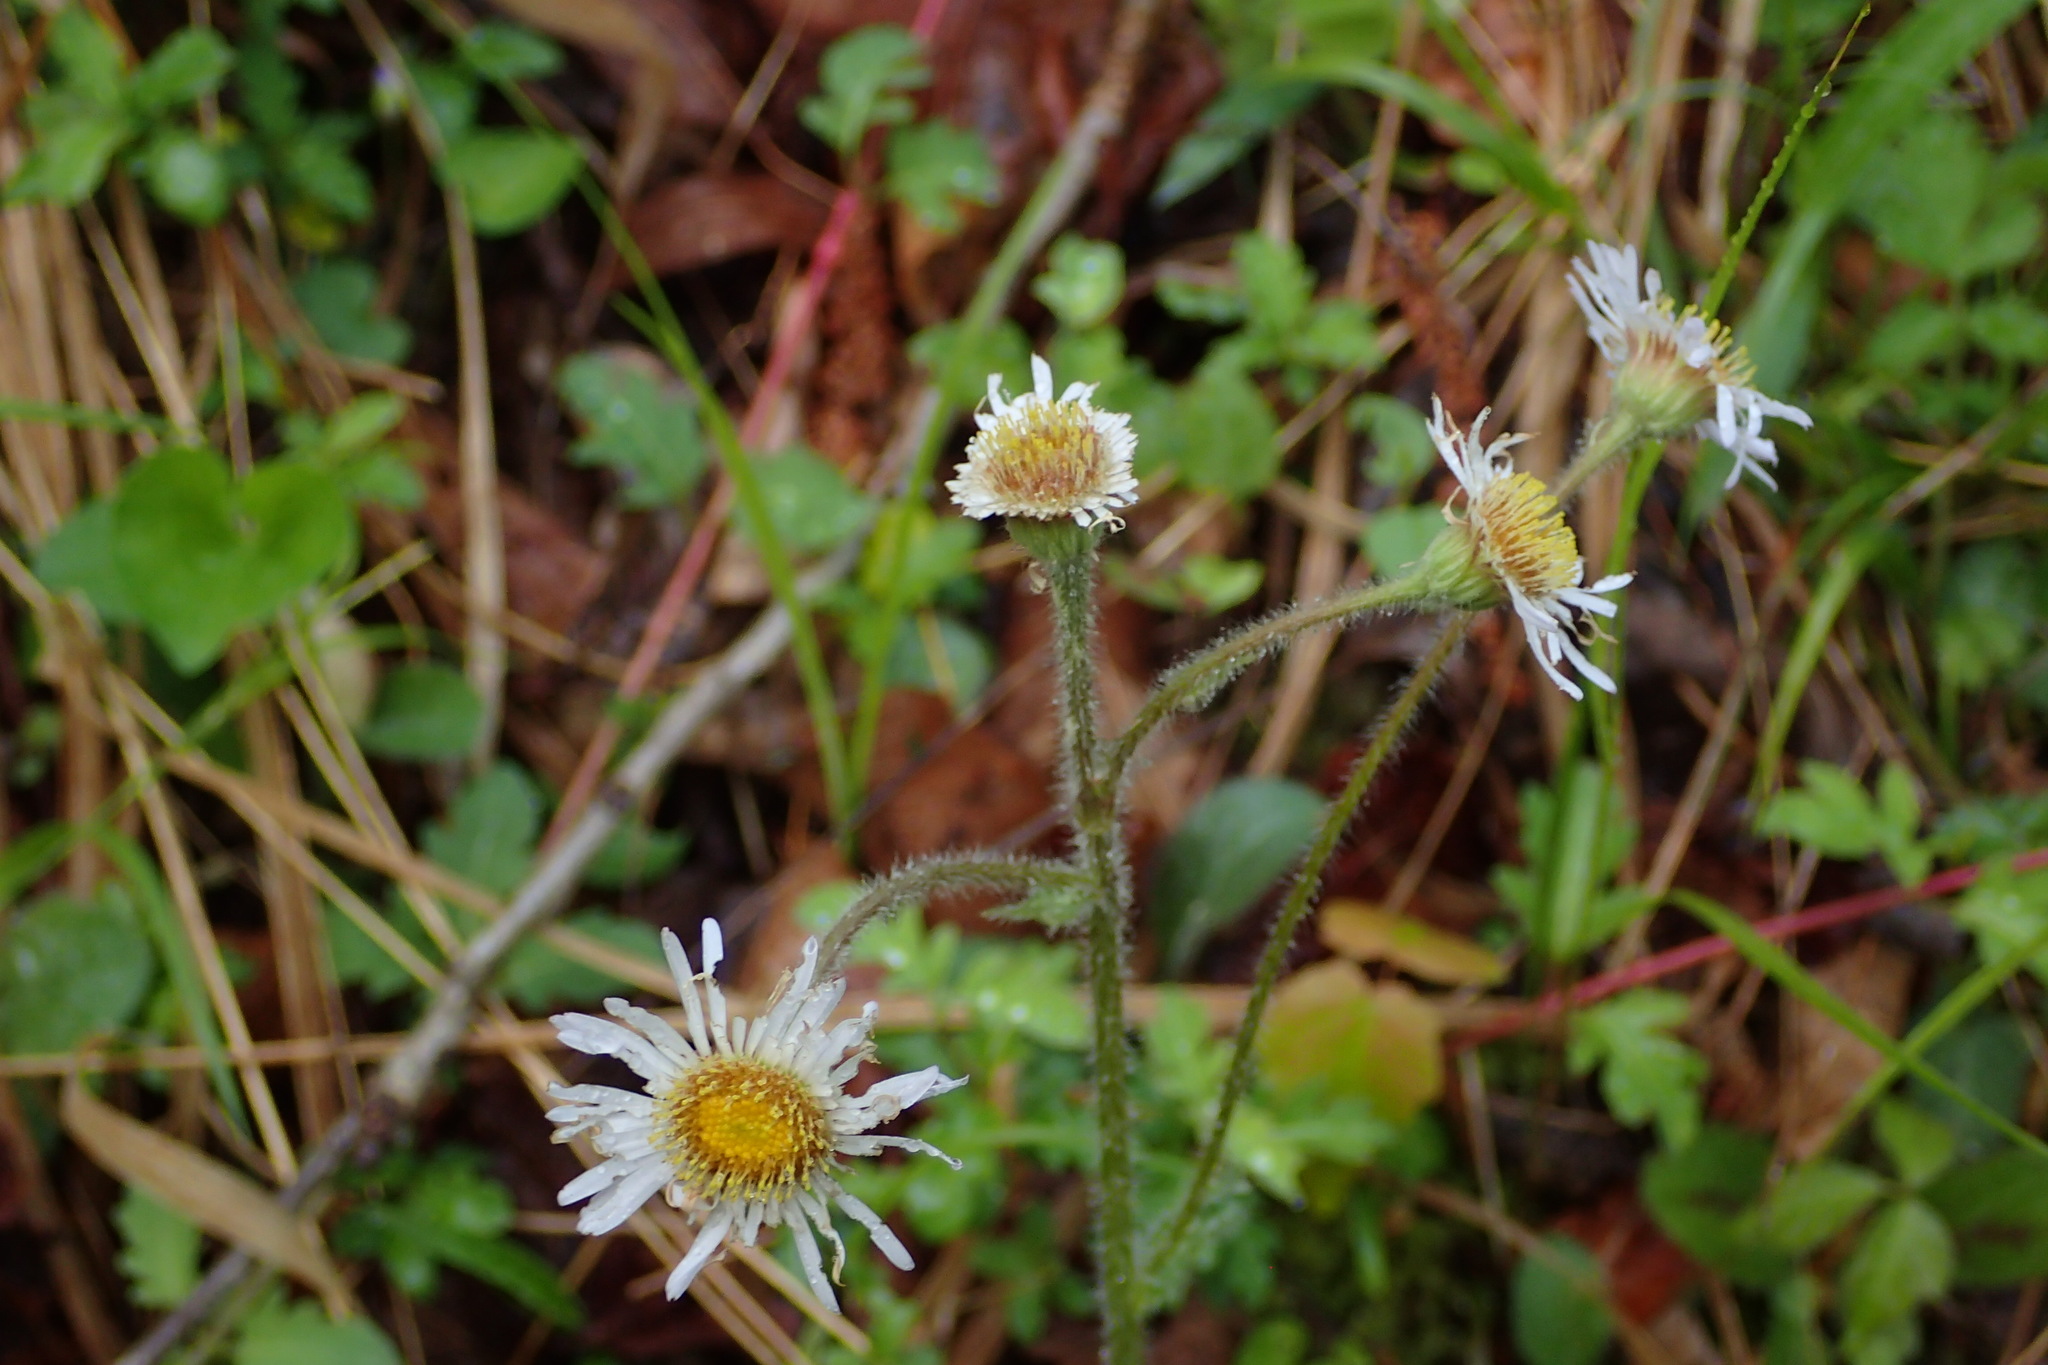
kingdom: Plantae
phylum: Tracheophyta
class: Magnoliopsida
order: Asterales
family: Asteraceae
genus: Erigeron
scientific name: Erigeron pulchellus
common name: Hairy fleabane
